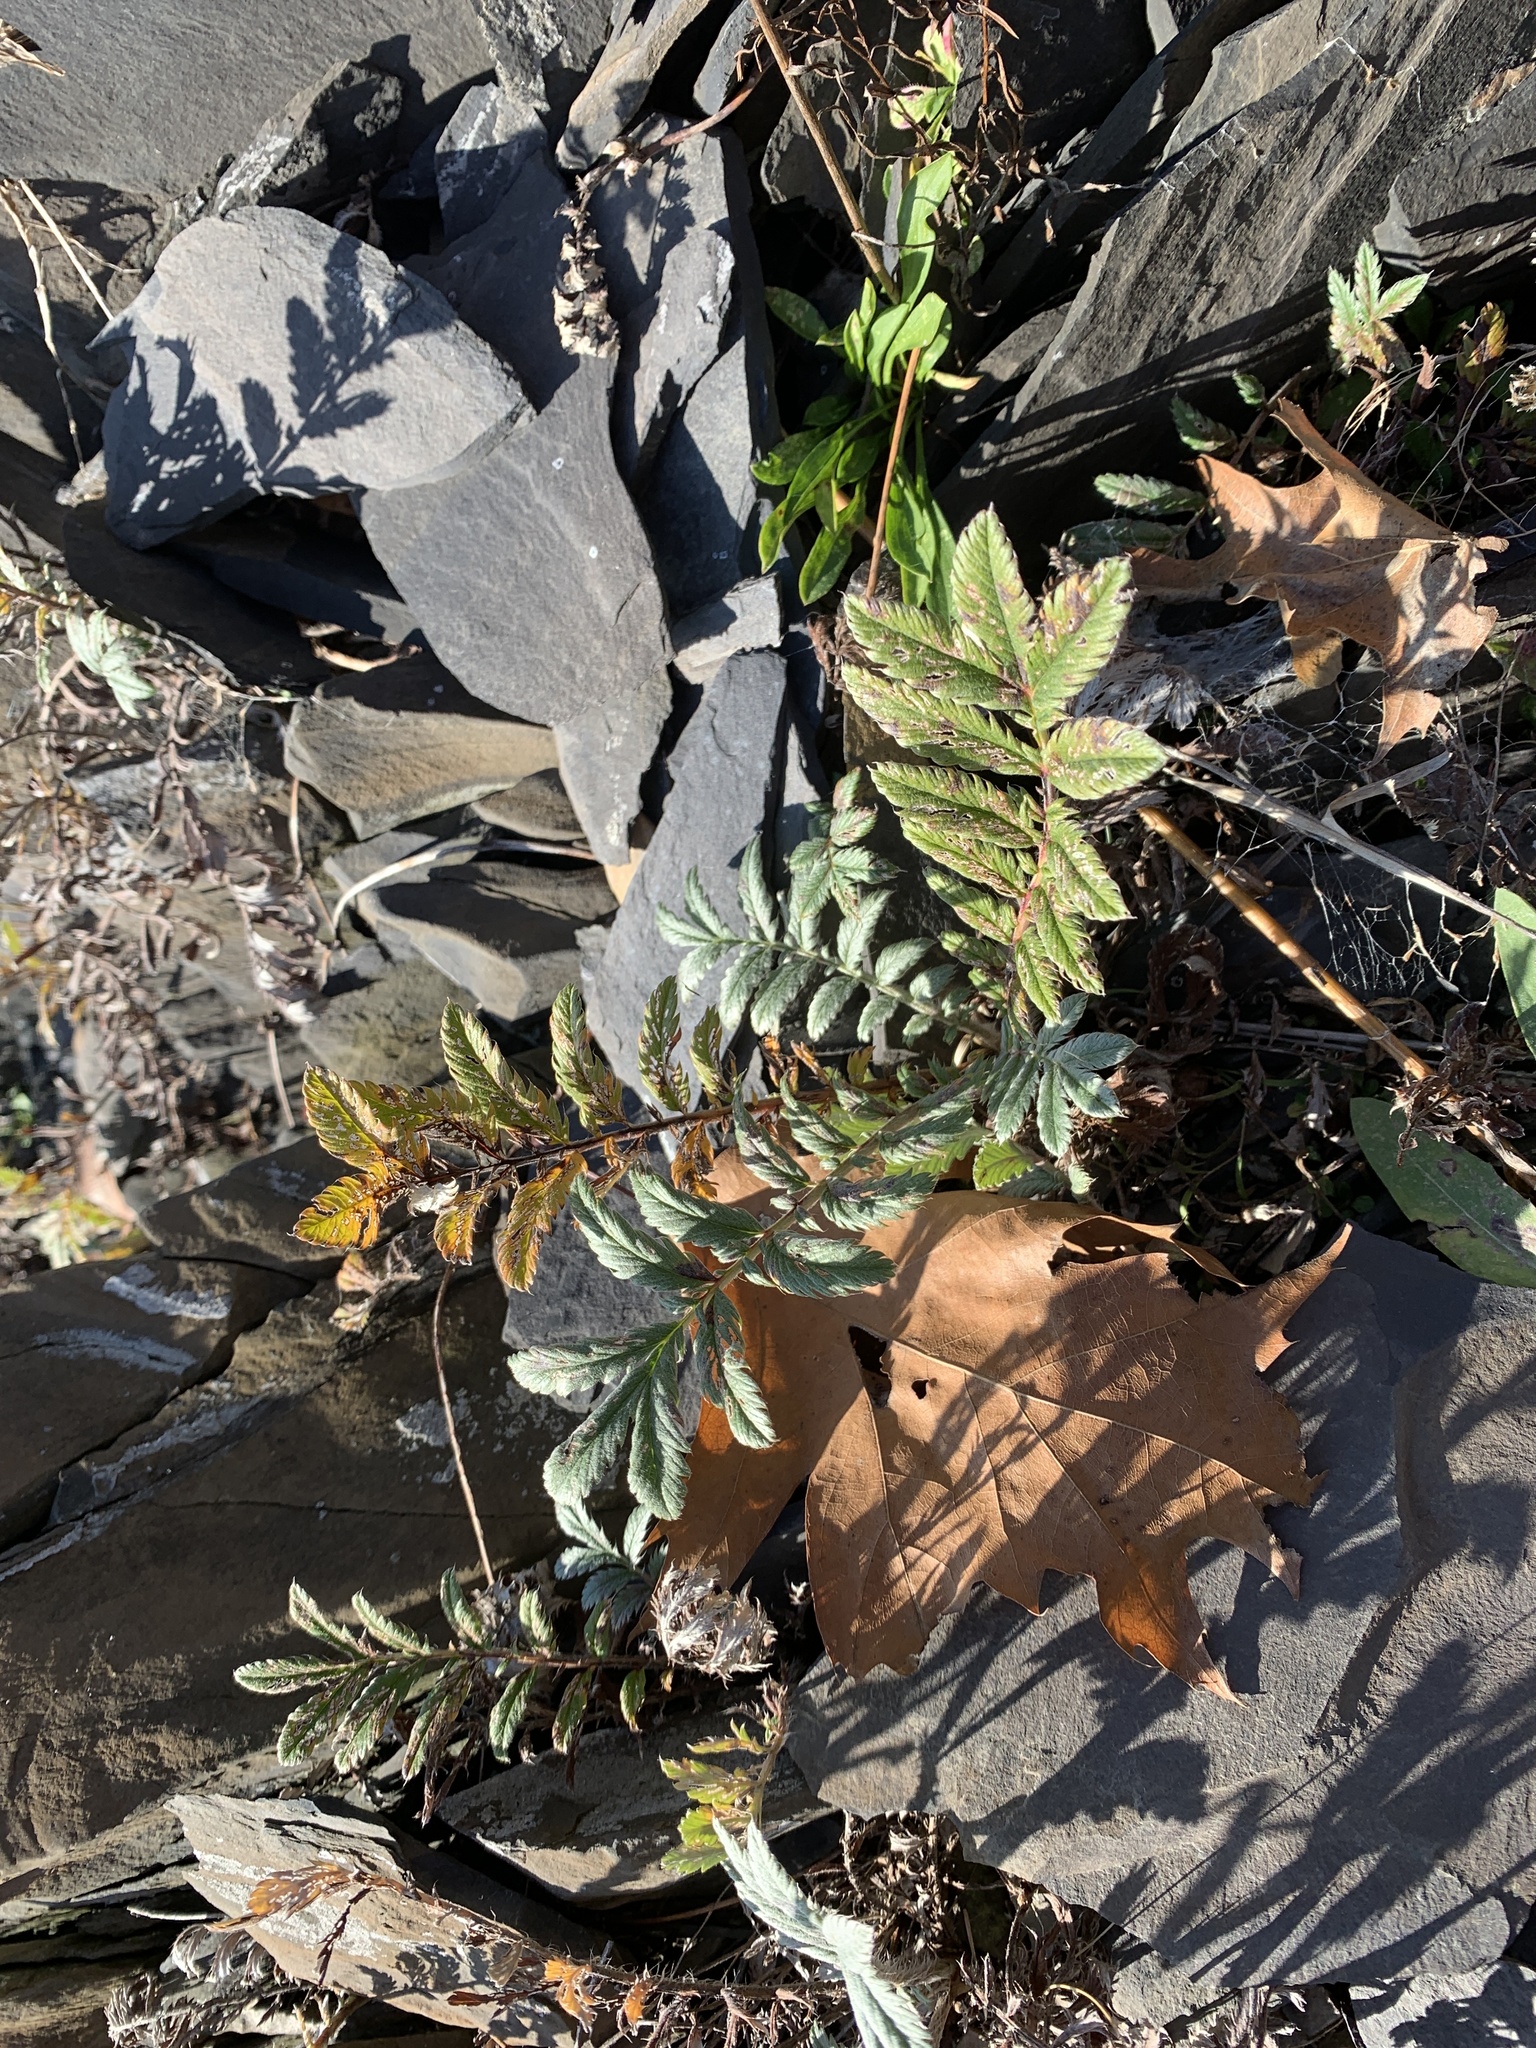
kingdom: Plantae
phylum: Tracheophyta
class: Magnoliopsida
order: Rosales
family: Rosaceae
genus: Argentina
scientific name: Argentina anserina
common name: Common silverweed
